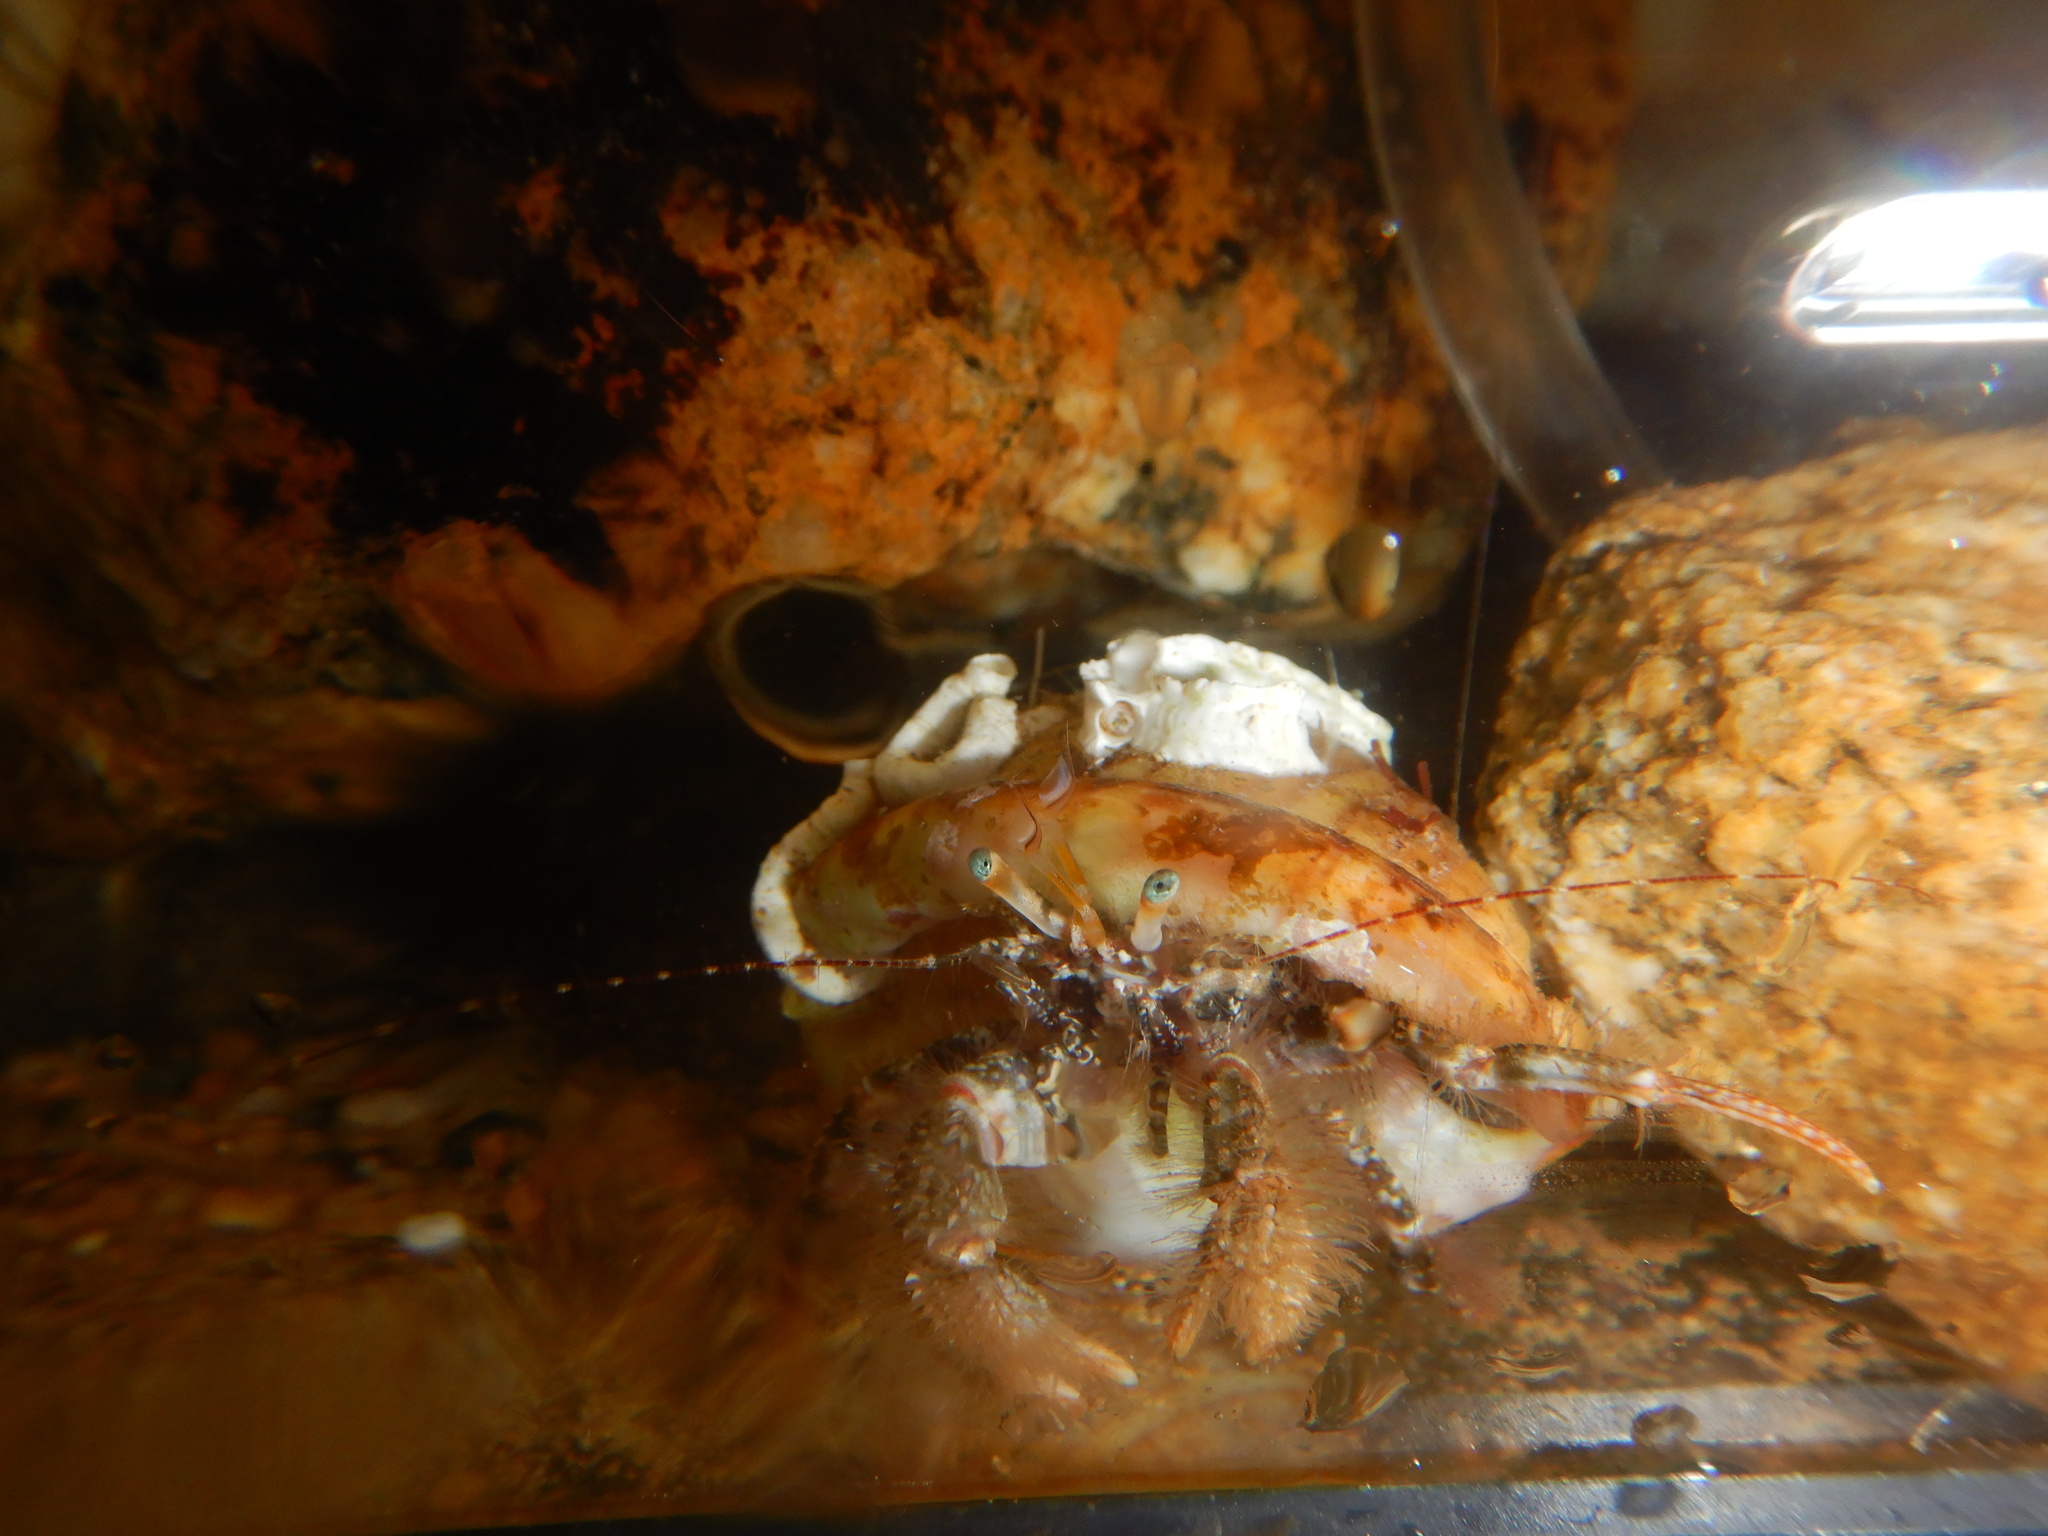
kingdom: Animalia
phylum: Arthropoda
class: Malacostraca
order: Decapoda
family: Paguridae
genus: Pagurus
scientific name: Pagurus cuanensis
